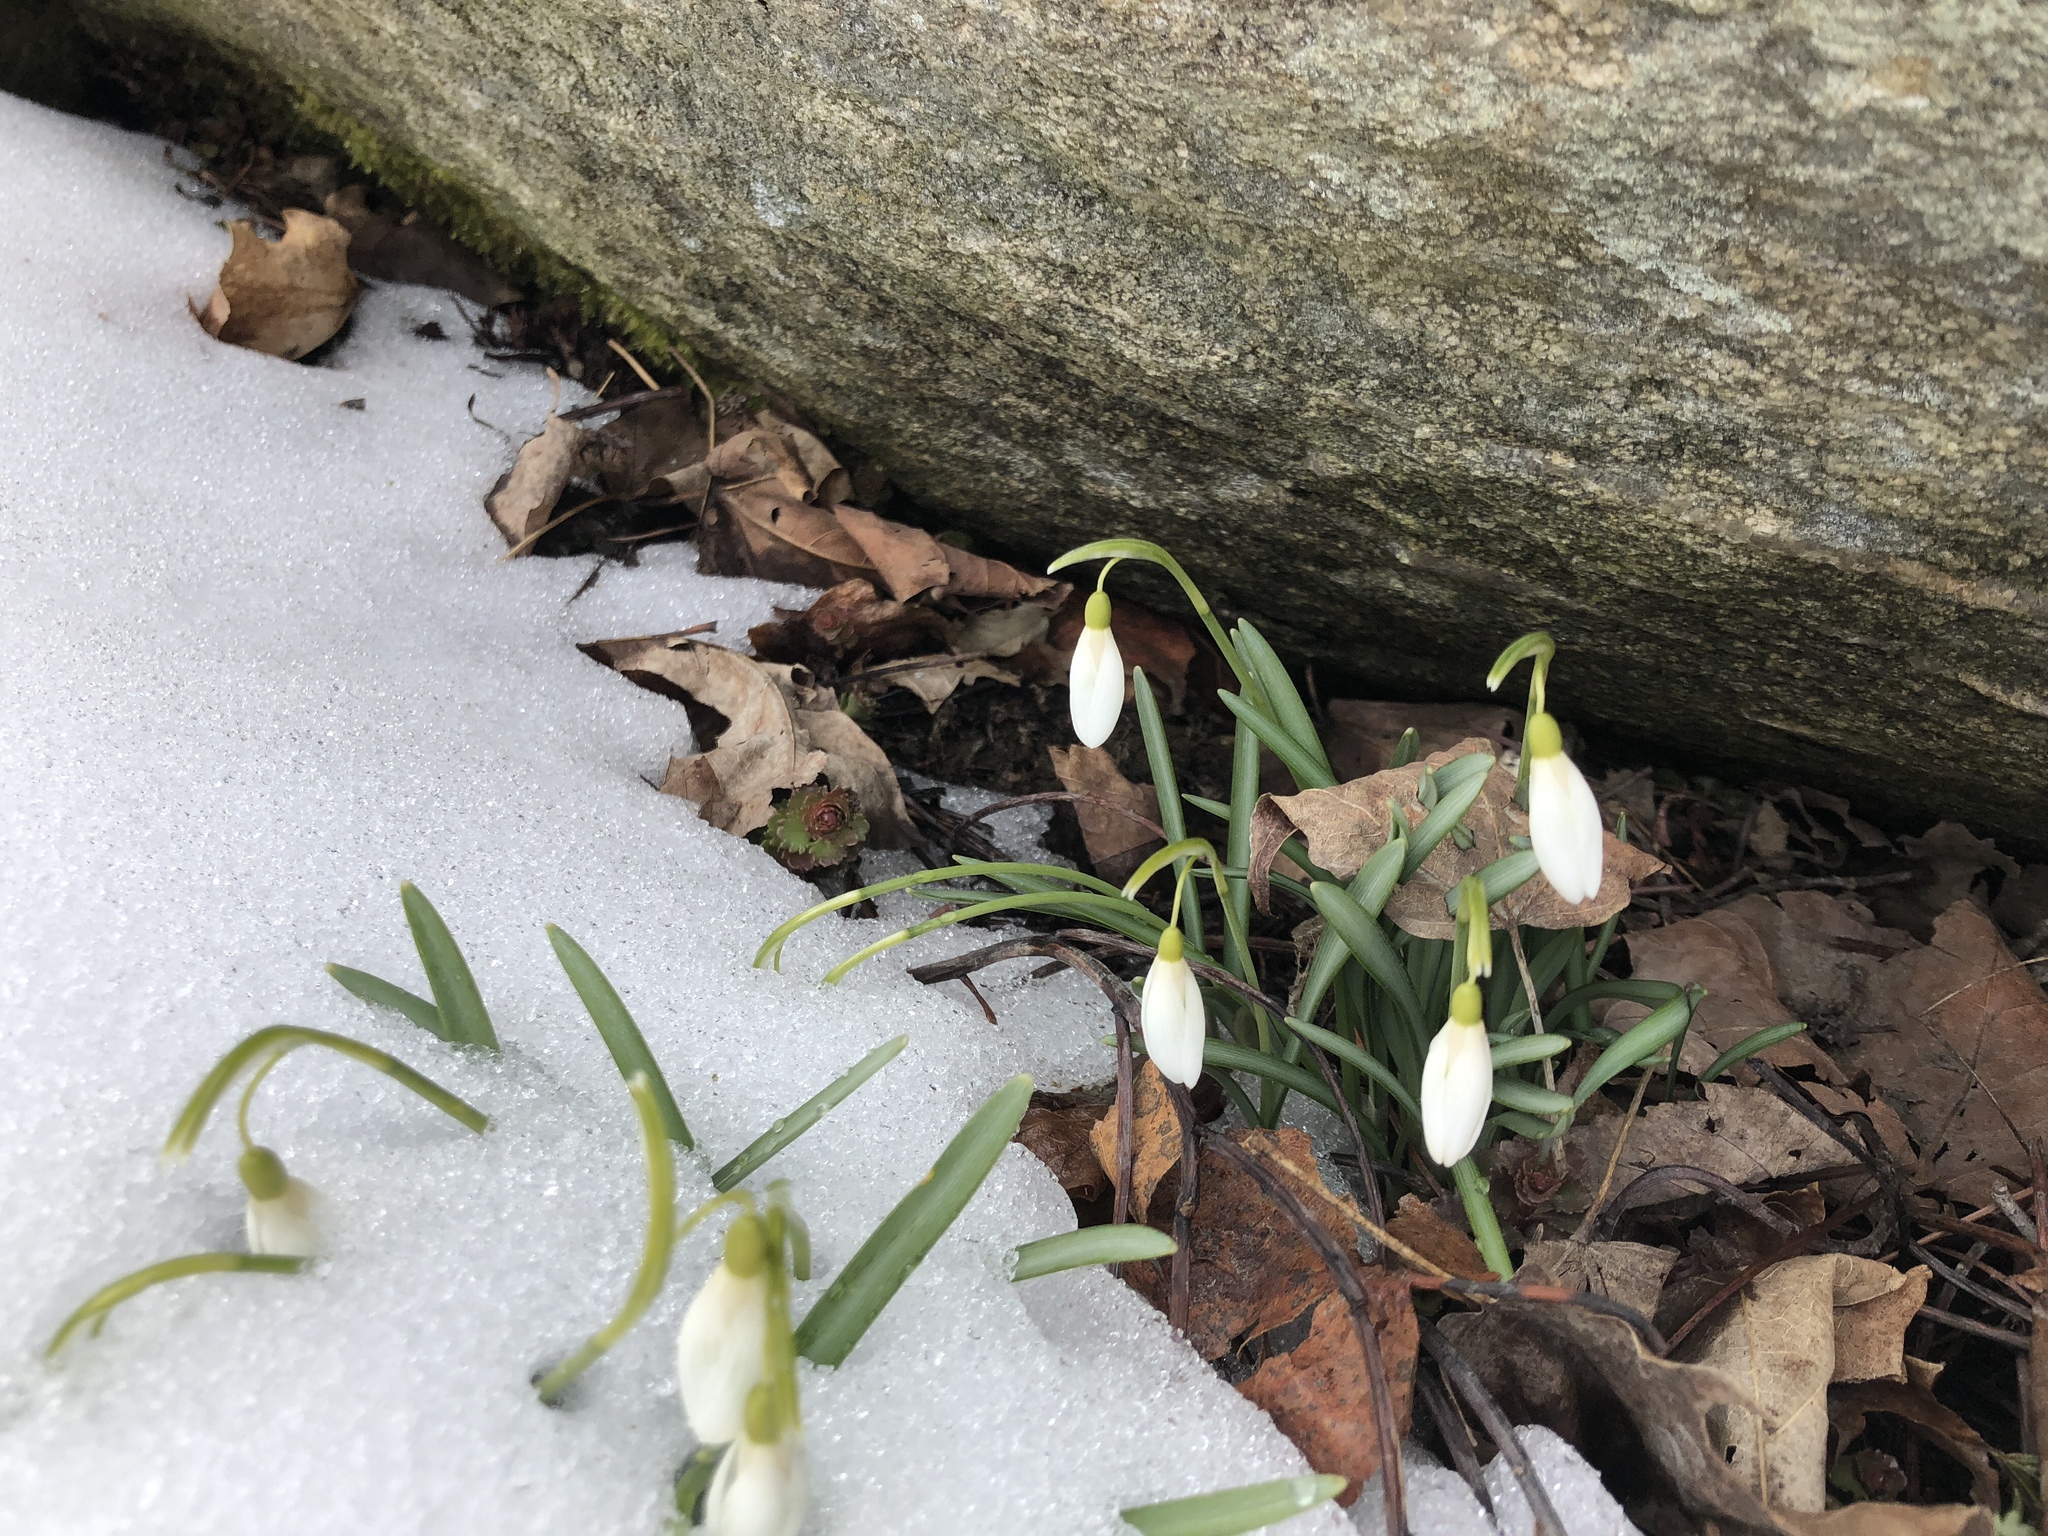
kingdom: Plantae
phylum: Tracheophyta
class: Liliopsida
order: Asparagales
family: Amaryllidaceae
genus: Galanthus
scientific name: Galanthus nivalis
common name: Snowdrop
